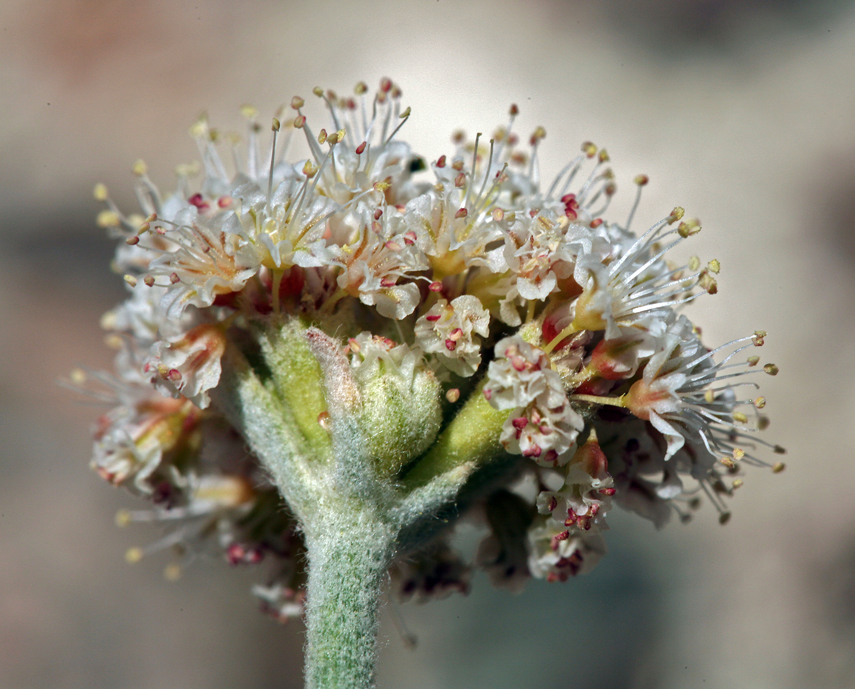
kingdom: Plantae
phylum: Tracheophyta
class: Magnoliopsida
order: Caryophyllales
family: Polygonaceae
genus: Eriogonum
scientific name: Eriogonum diatomaceum
